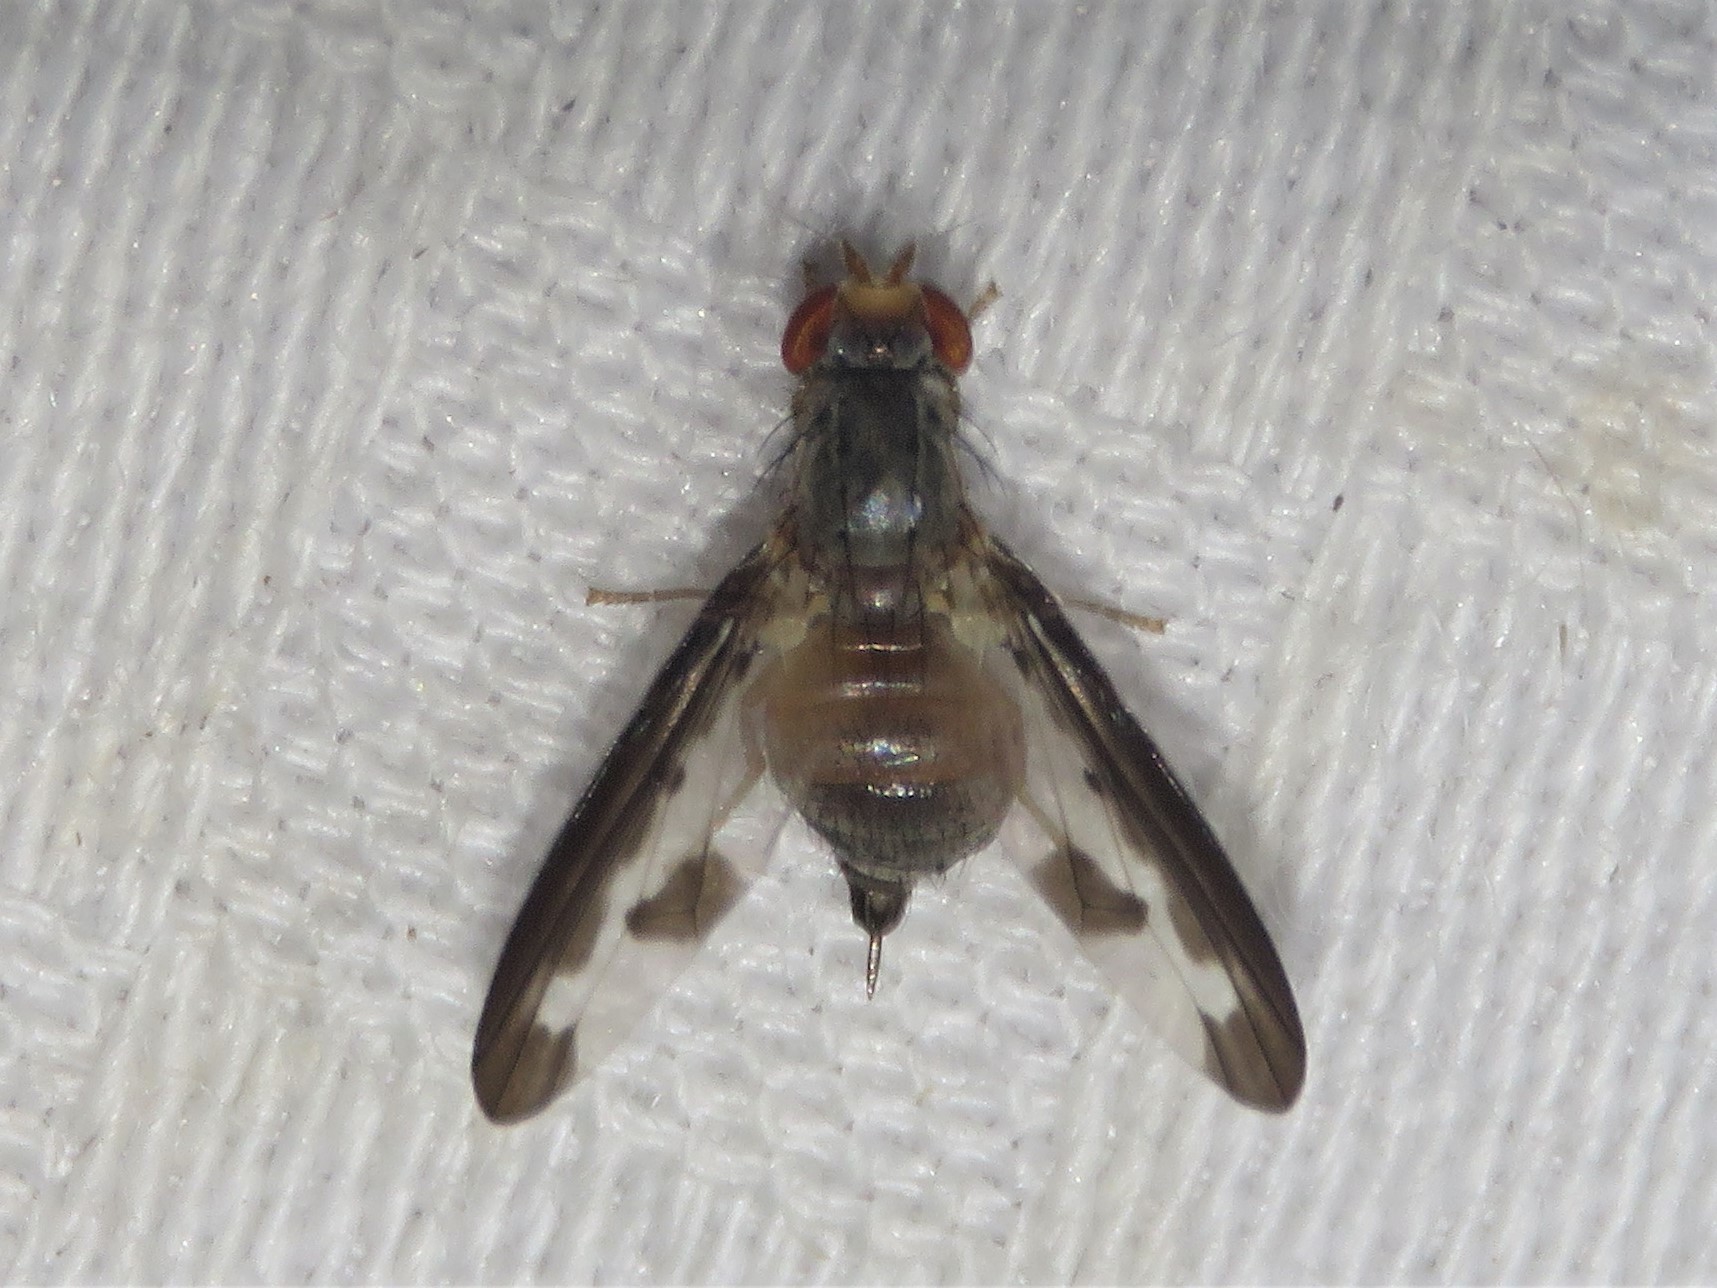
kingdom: Animalia
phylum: Arthropoda
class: Insecta
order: Diptera
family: Pallopteridae
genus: Palloptera
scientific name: Palloptera setosa
